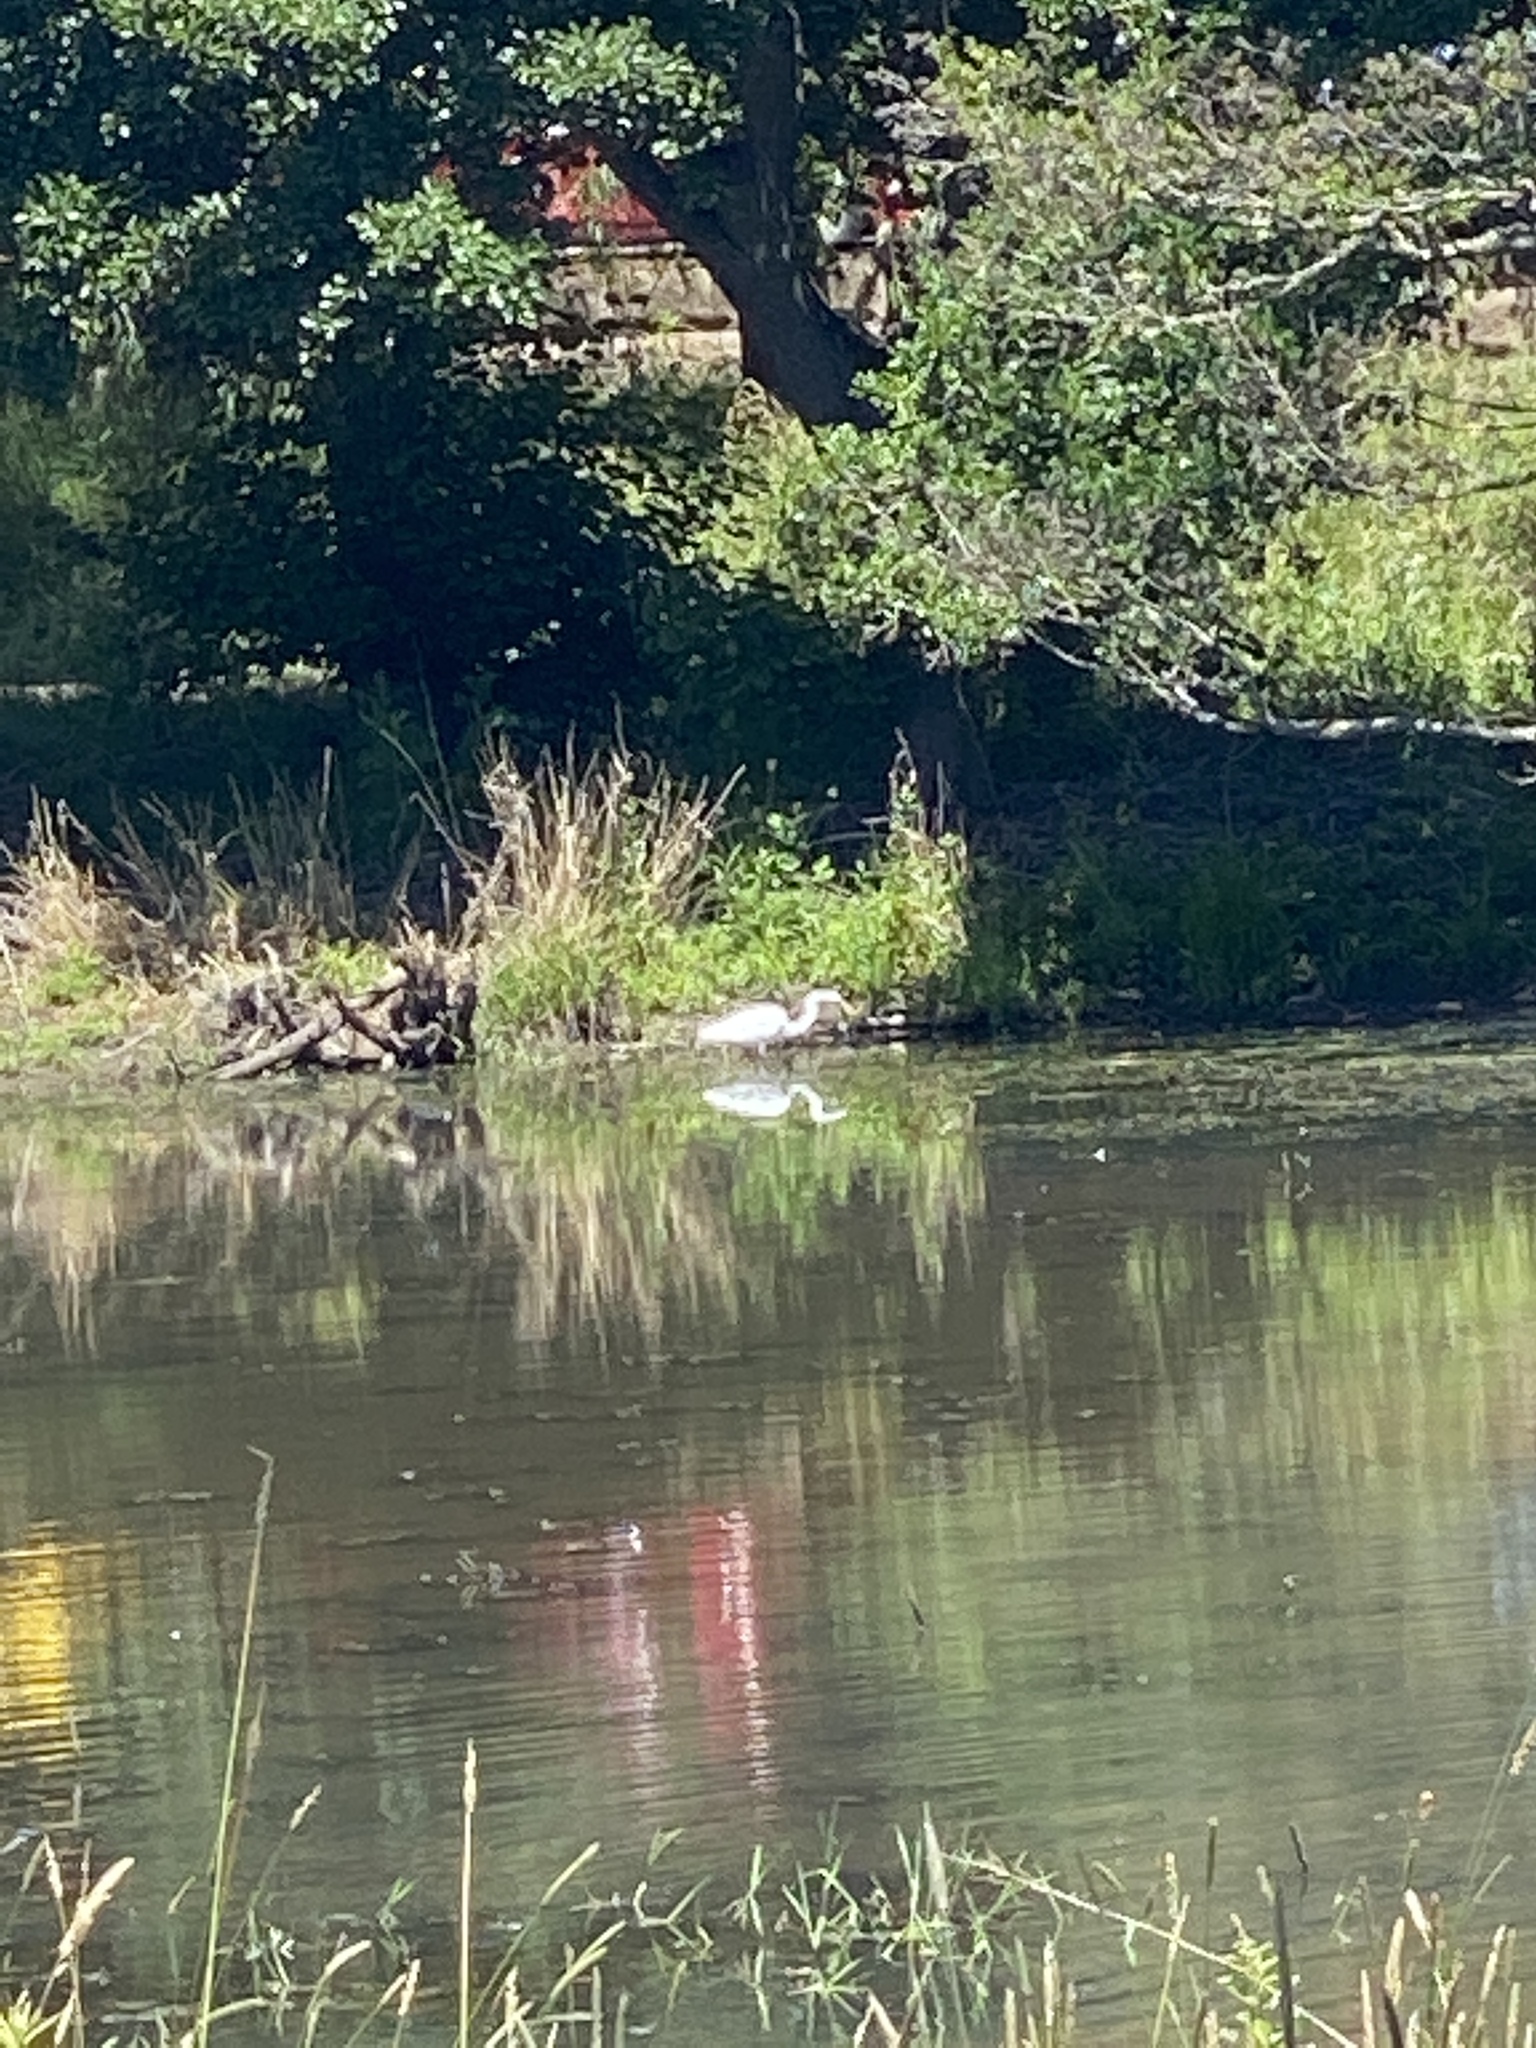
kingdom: Animalia
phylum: Chordata
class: Aves
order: Pelecaniformes
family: Ardeidae
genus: Ardea
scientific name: Ardea alba
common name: Great egret
